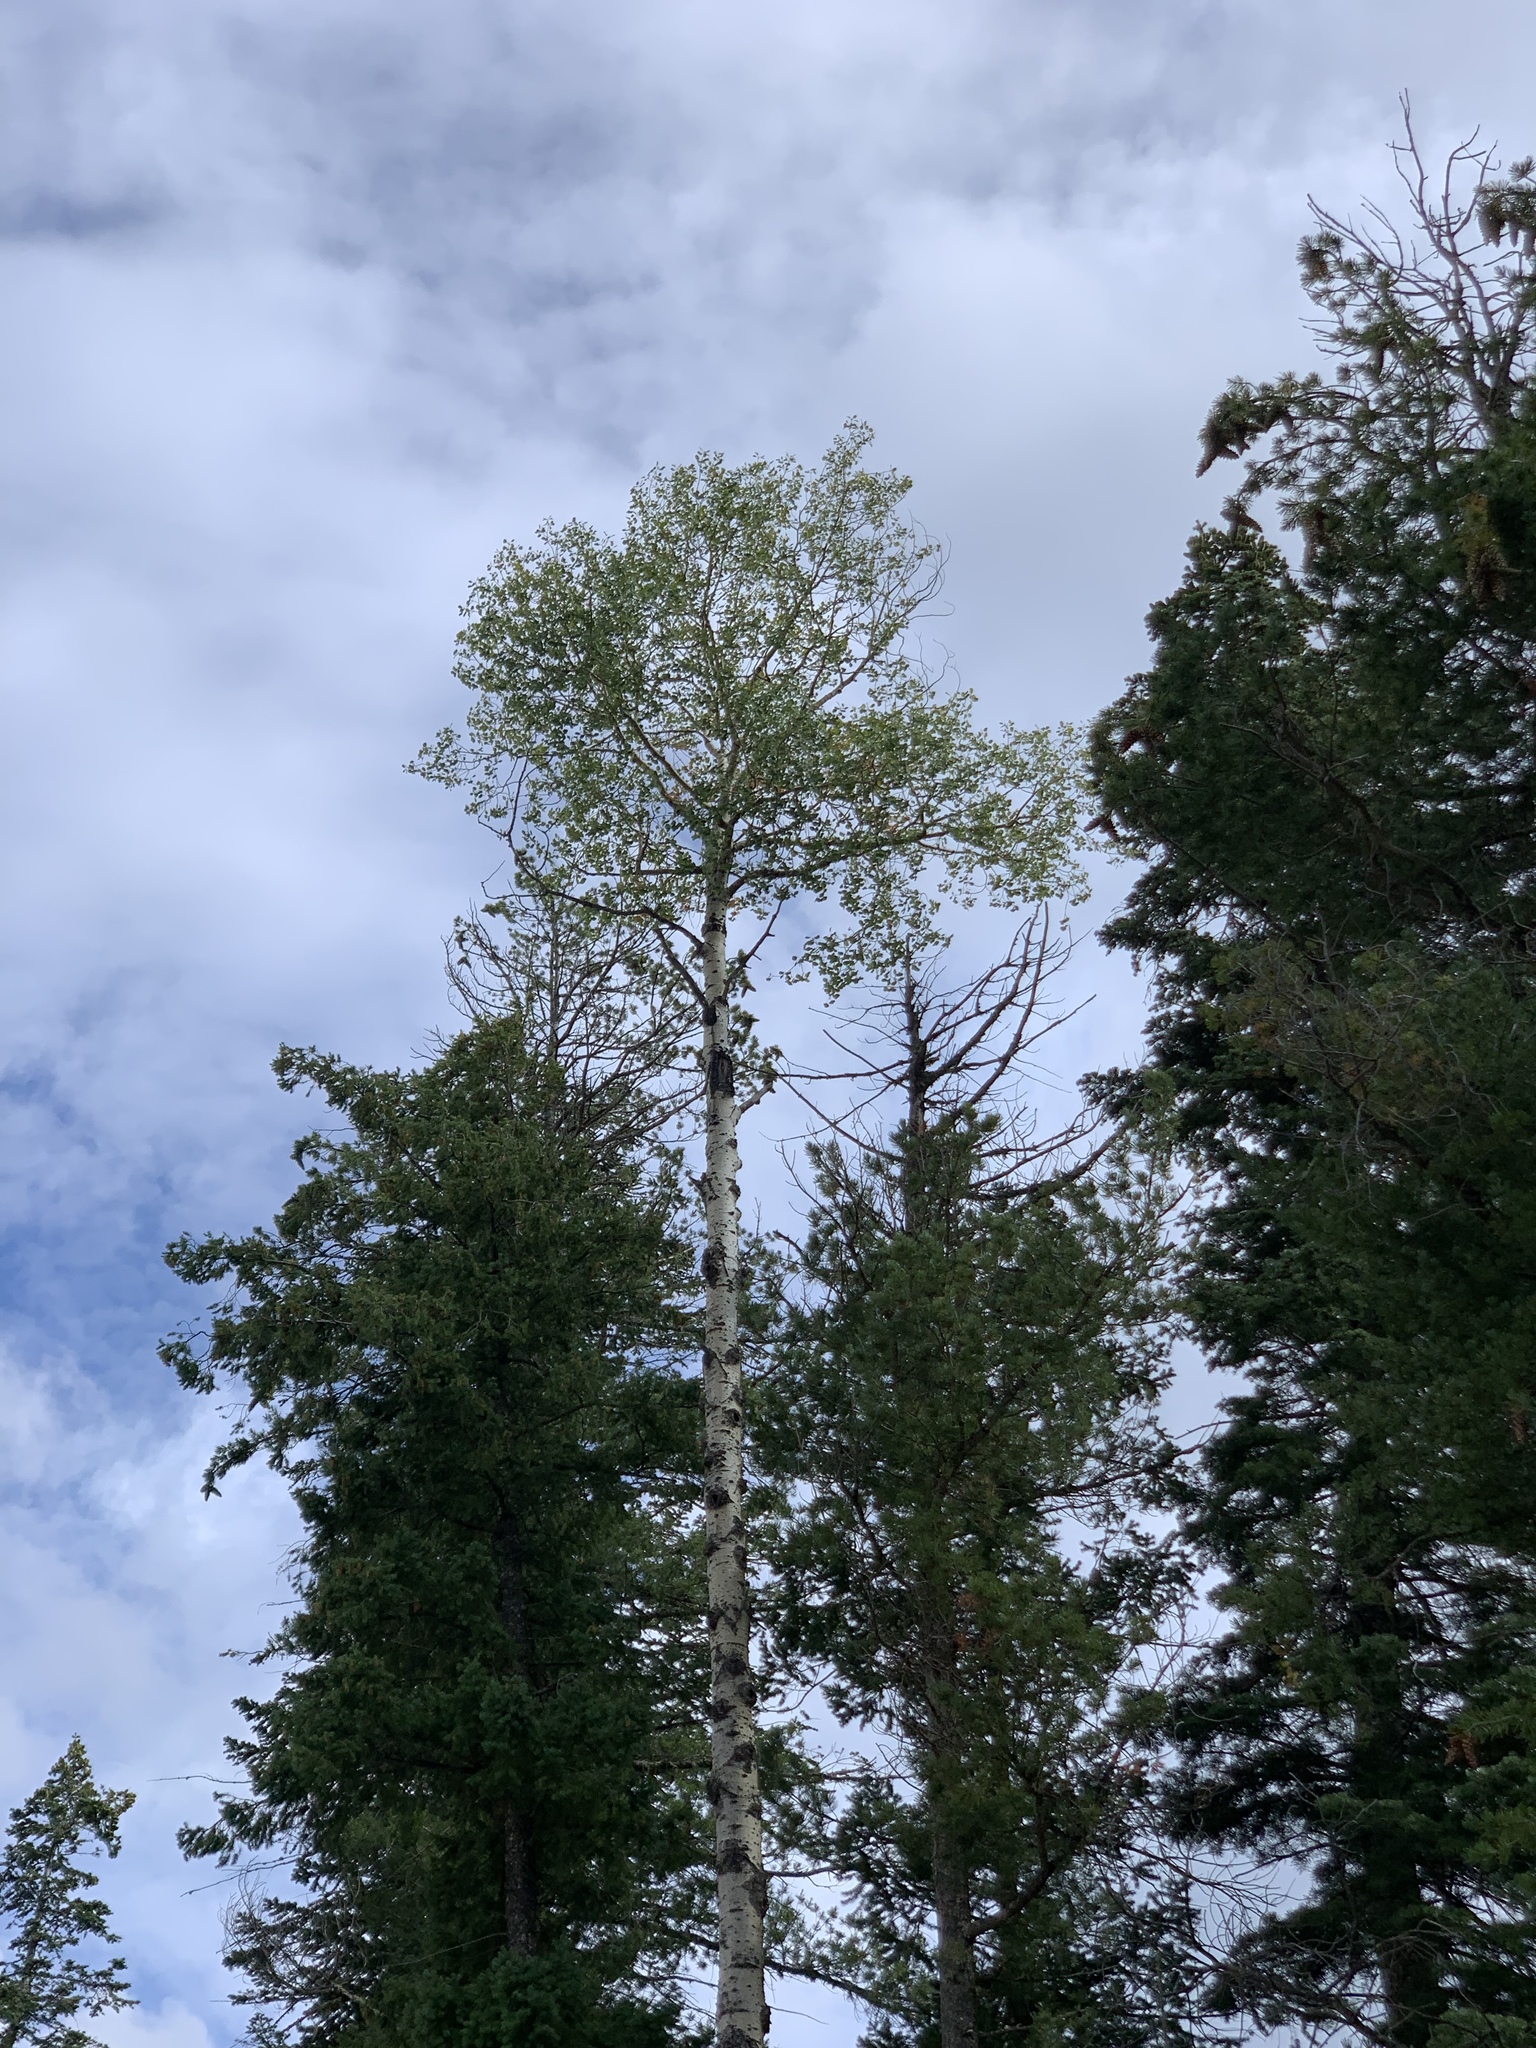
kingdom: Plantae
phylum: Tracheophyta
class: Magnoliopsida
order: Malpighiales
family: Salicaceae
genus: Populus
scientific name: Populus tremuloides
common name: Quaking aspen
